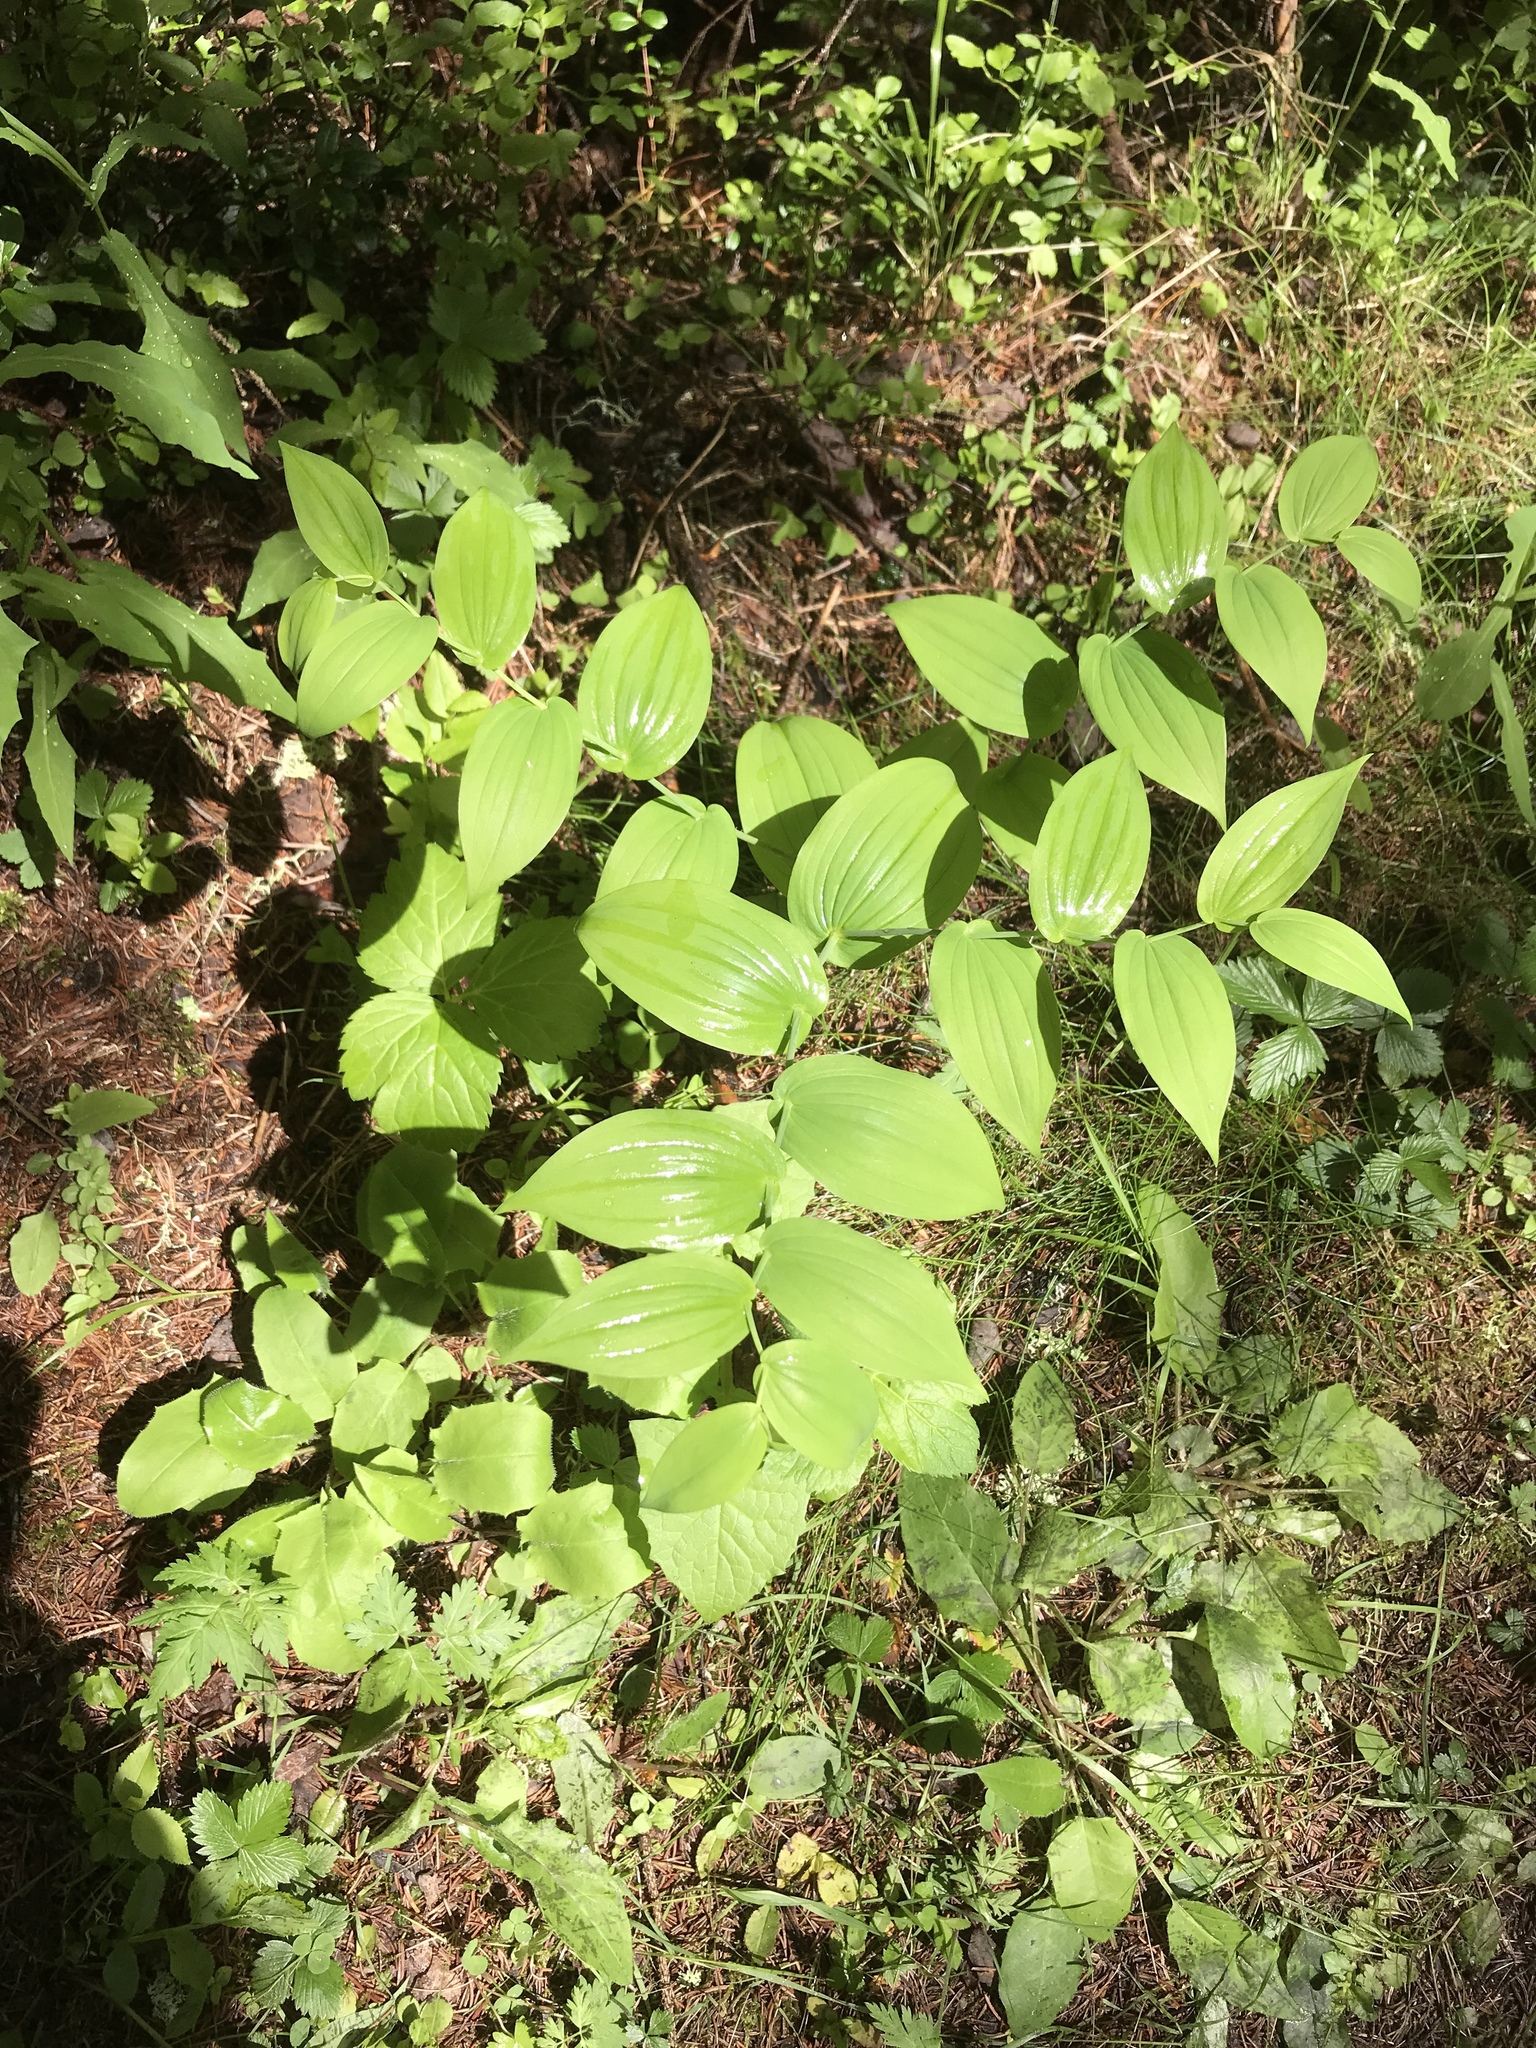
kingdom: Plantae
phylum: Tracheophyta
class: Liliopsida
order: Liliales
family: Liliaceae
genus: Streptopus
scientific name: Streptopus amplexifolius
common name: Clasp twisted stalk
